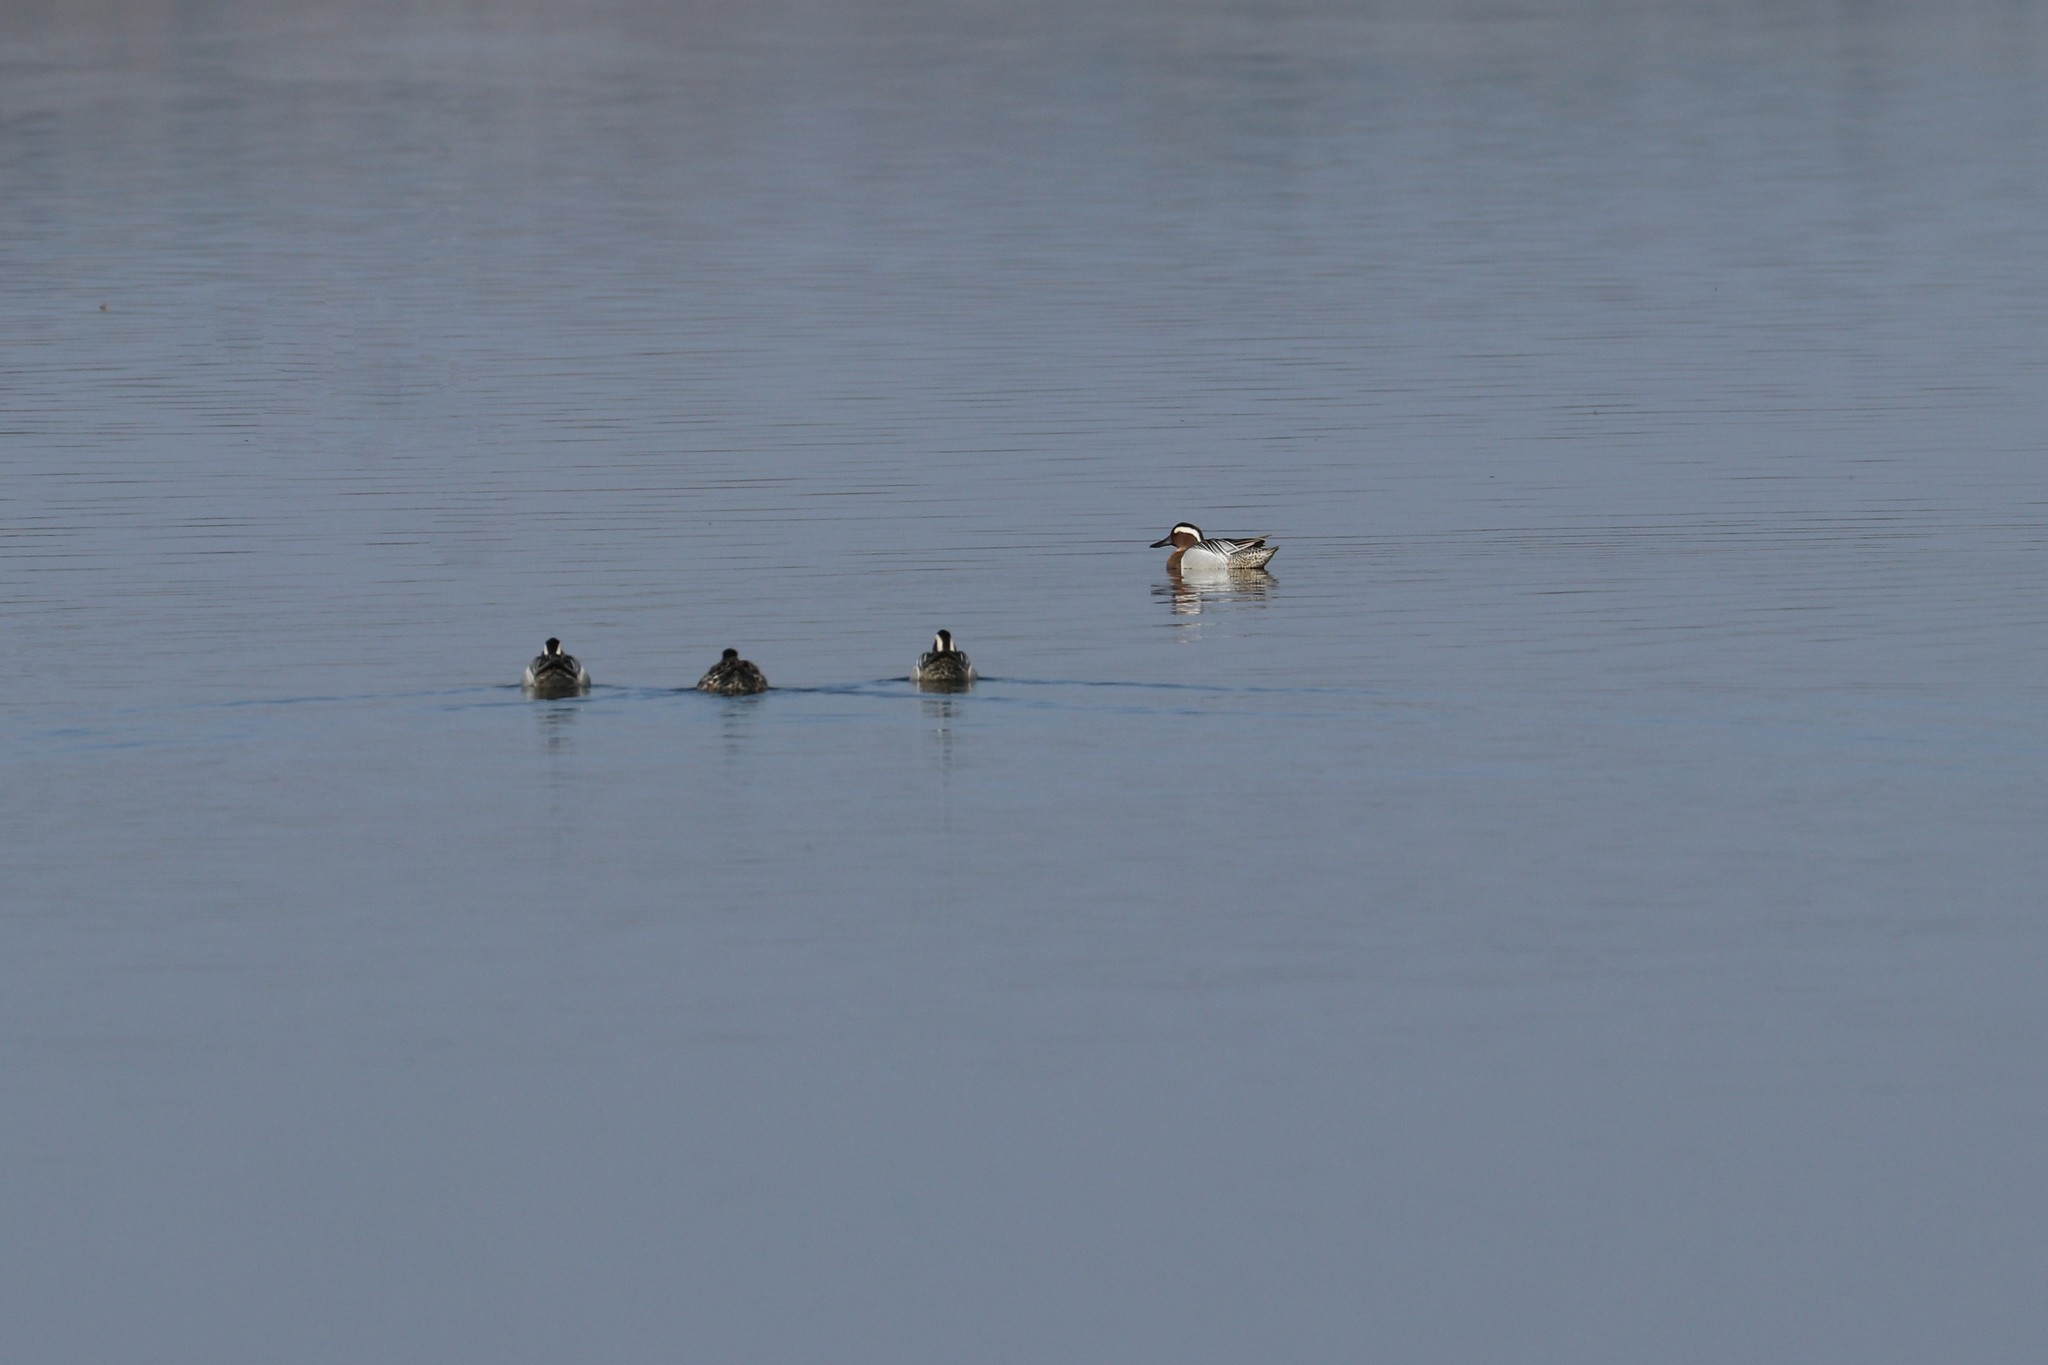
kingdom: Animalia
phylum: Chordata
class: Aves
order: Anseriformes
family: Anatidae
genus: Spatula
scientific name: Spatula querquedula
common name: Garganey
